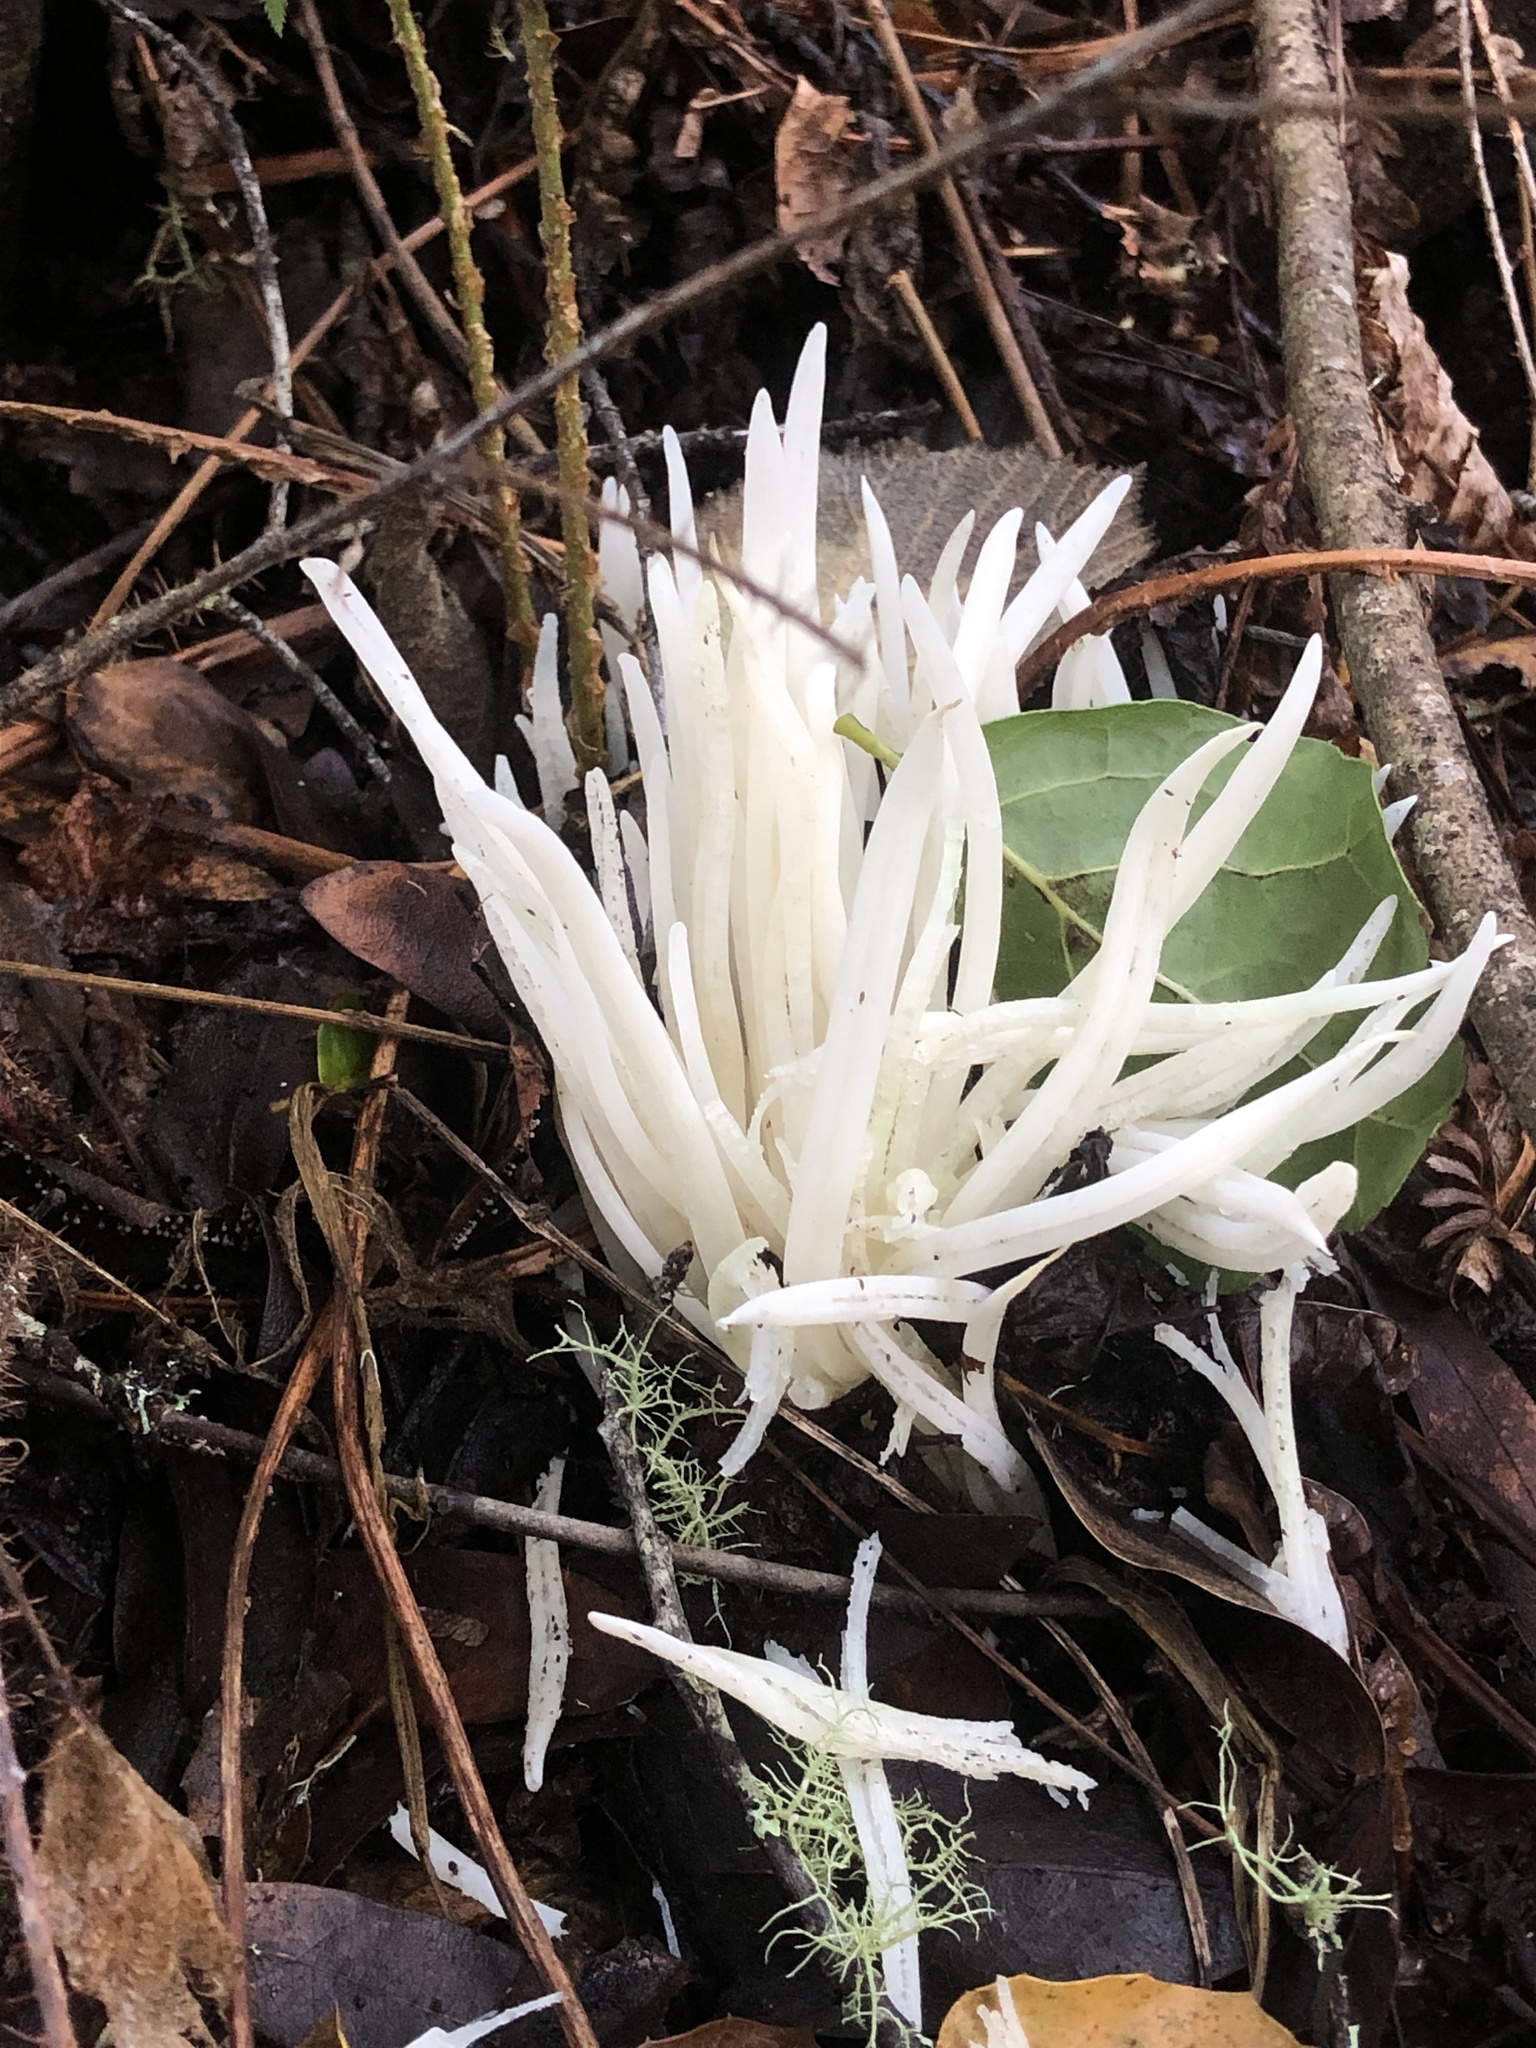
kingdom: Fungi
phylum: Basidiomycota
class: Agaricomycetes
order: Agaricales
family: Clavariaceae
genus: Clavaria
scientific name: Clavaria fragilis
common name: White spindles
